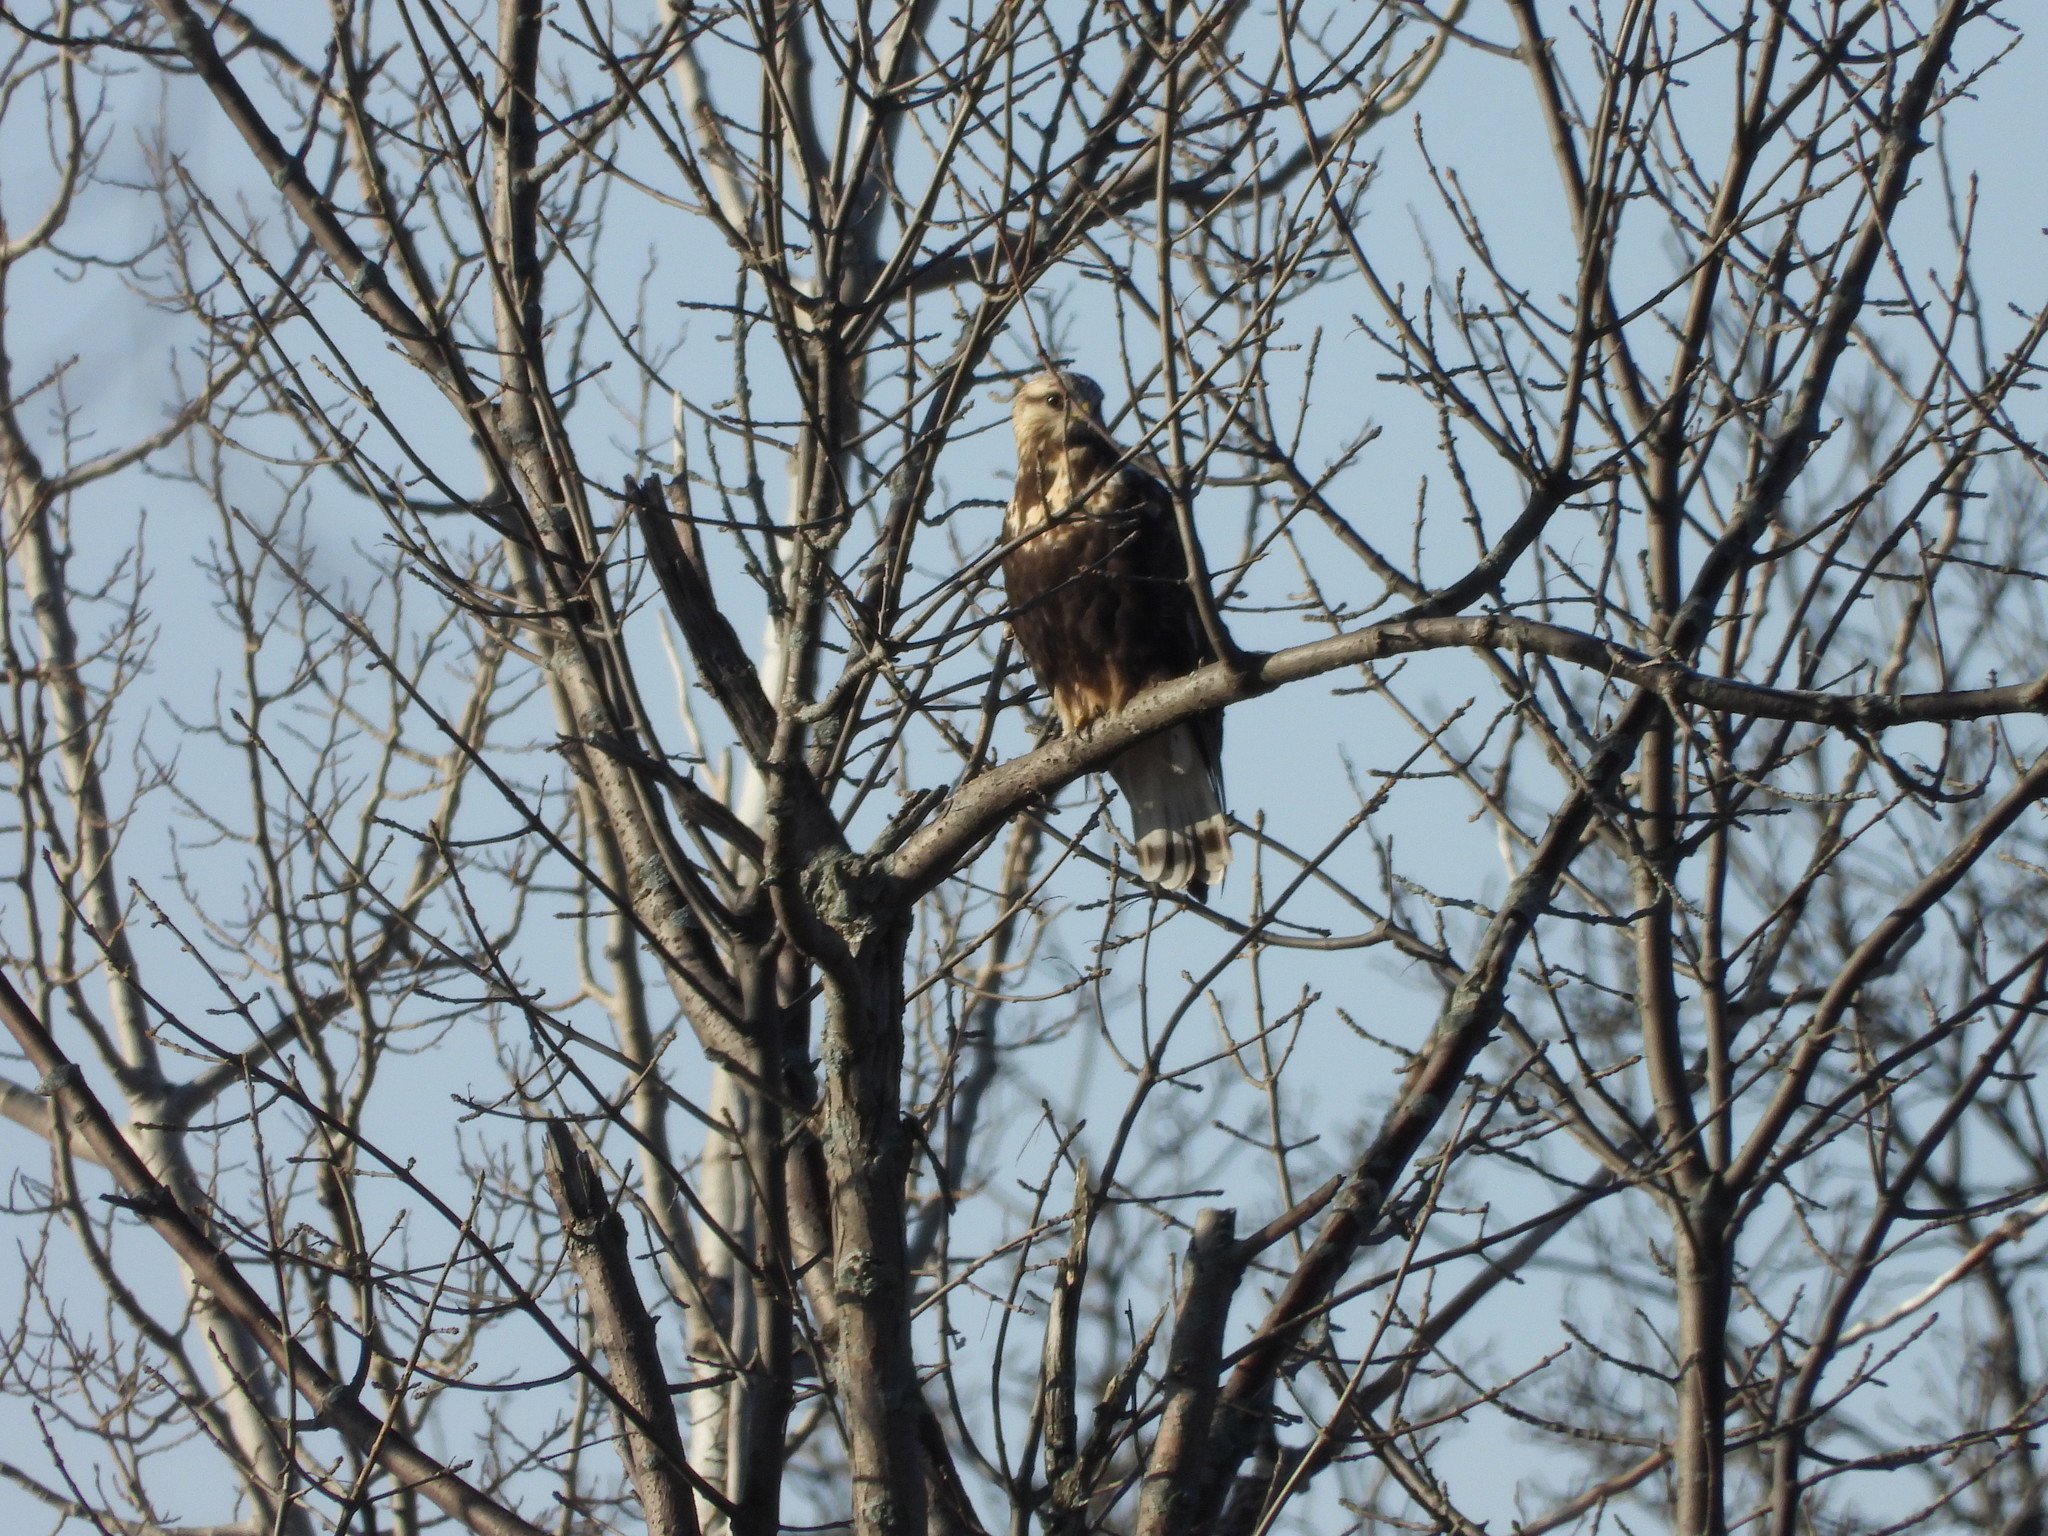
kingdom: Animalia
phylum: Chordata
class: Aves
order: Accipitriformes
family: Accipitridae
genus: Buteo
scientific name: Buteo lagopus
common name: Rough-legged buzzard
